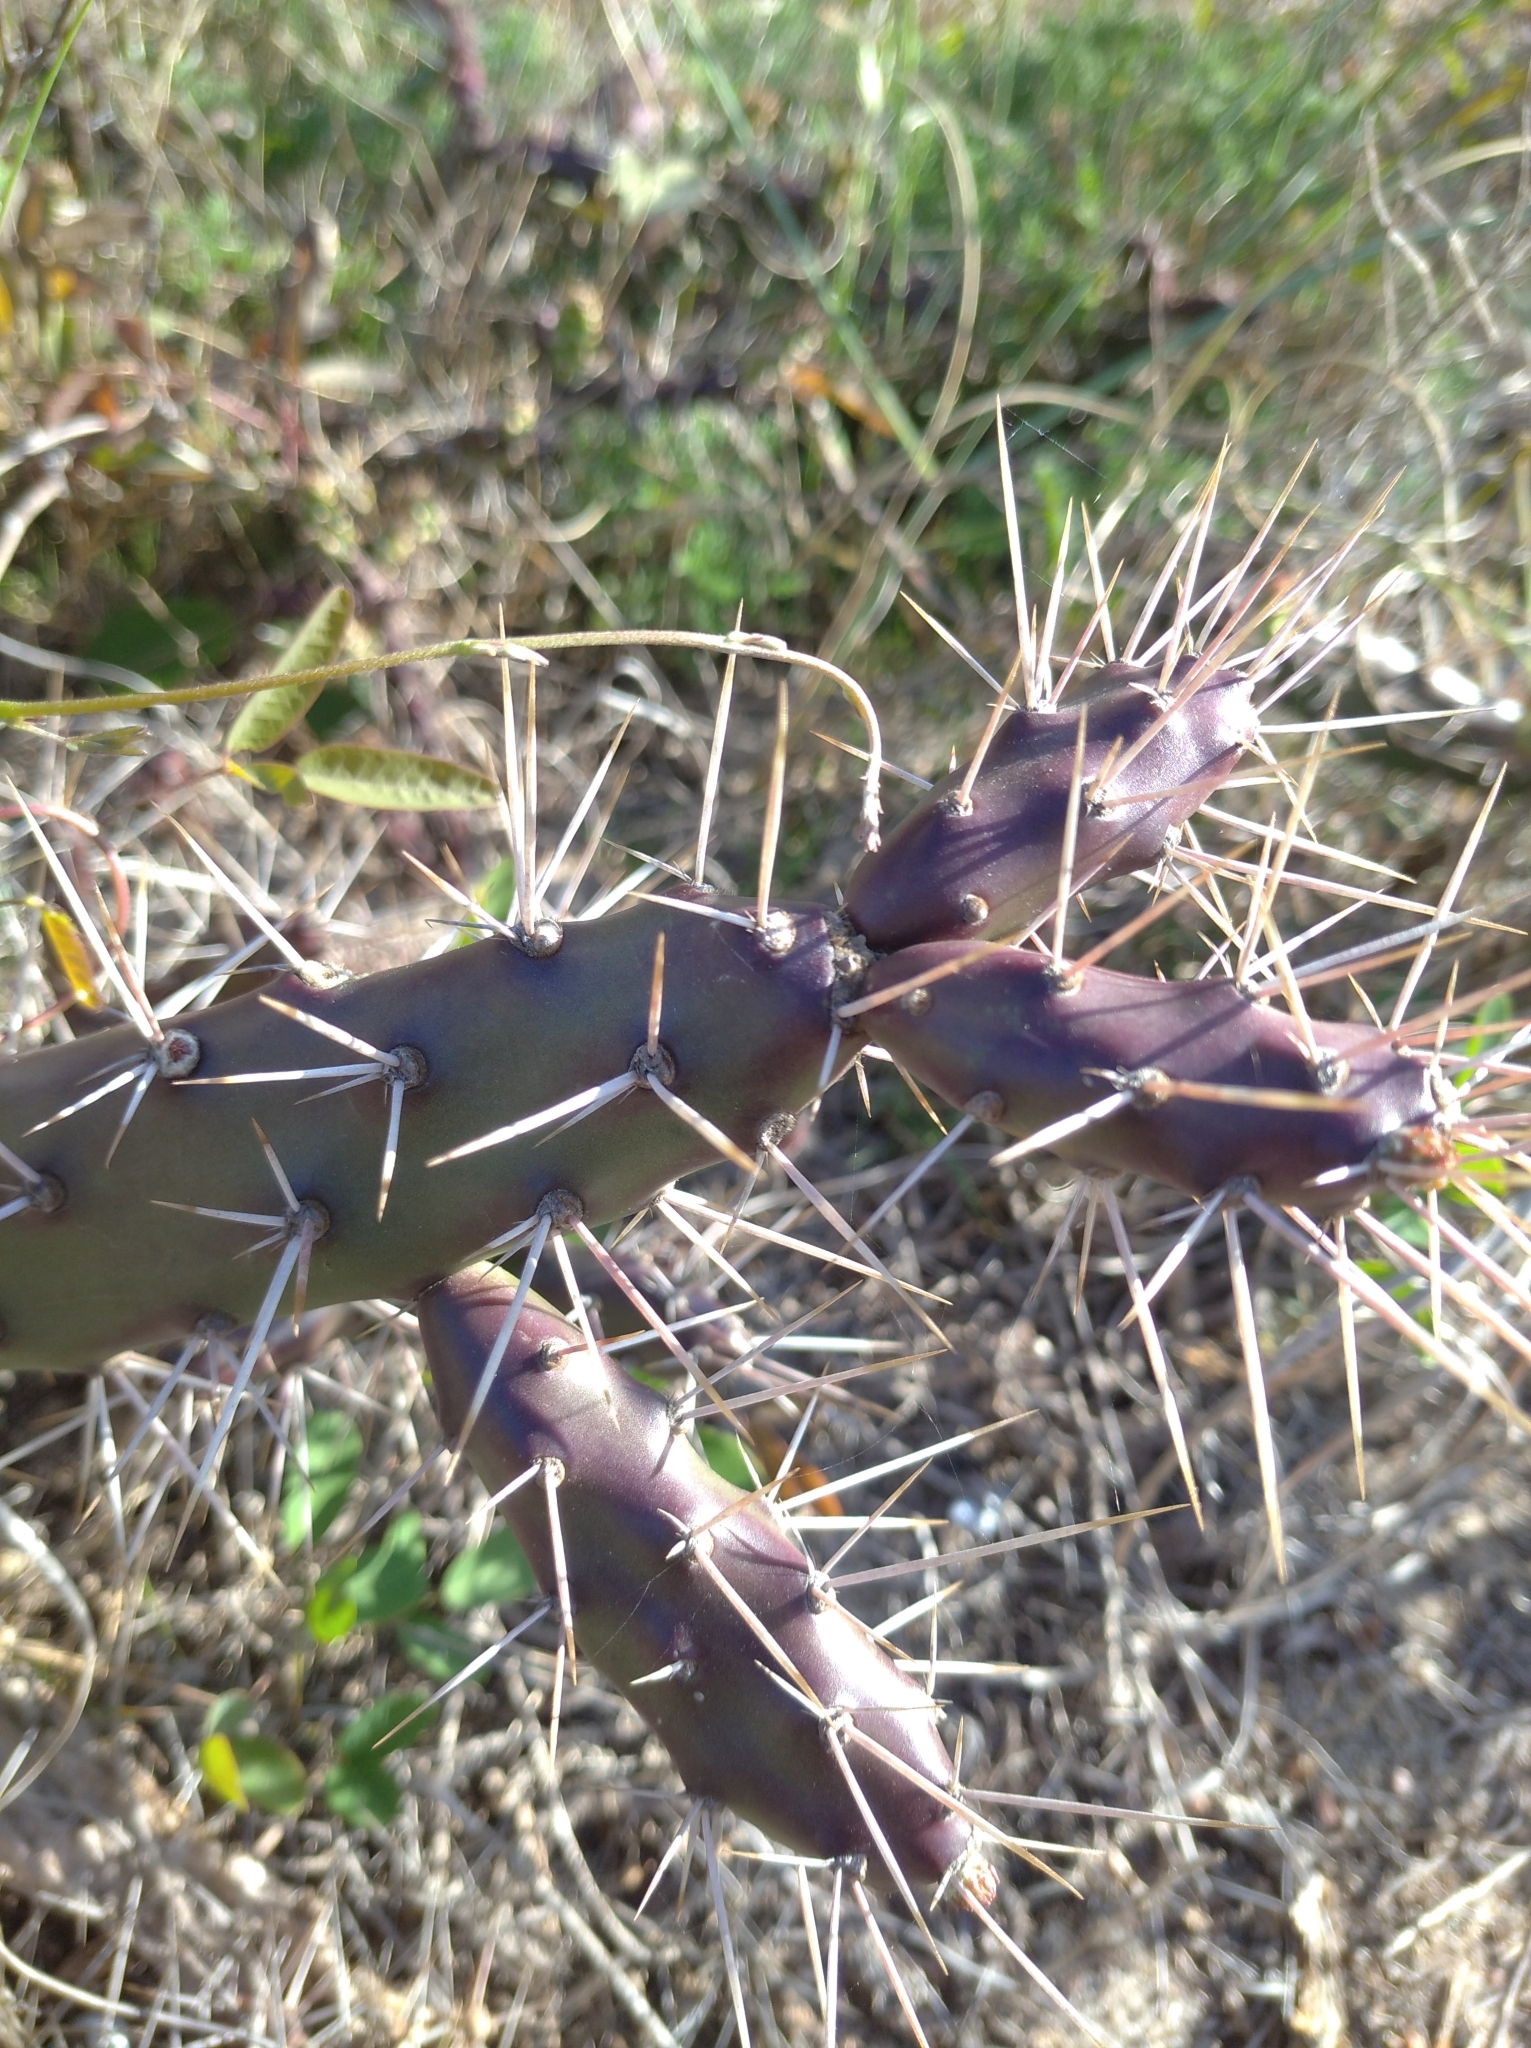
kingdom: Plantae
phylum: Tracheophyta
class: Magnoliopsida
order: Caryophyllales
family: Cactaceae
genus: Opuntia
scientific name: Opuntia aurantiaca
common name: Jointed pricklypear
